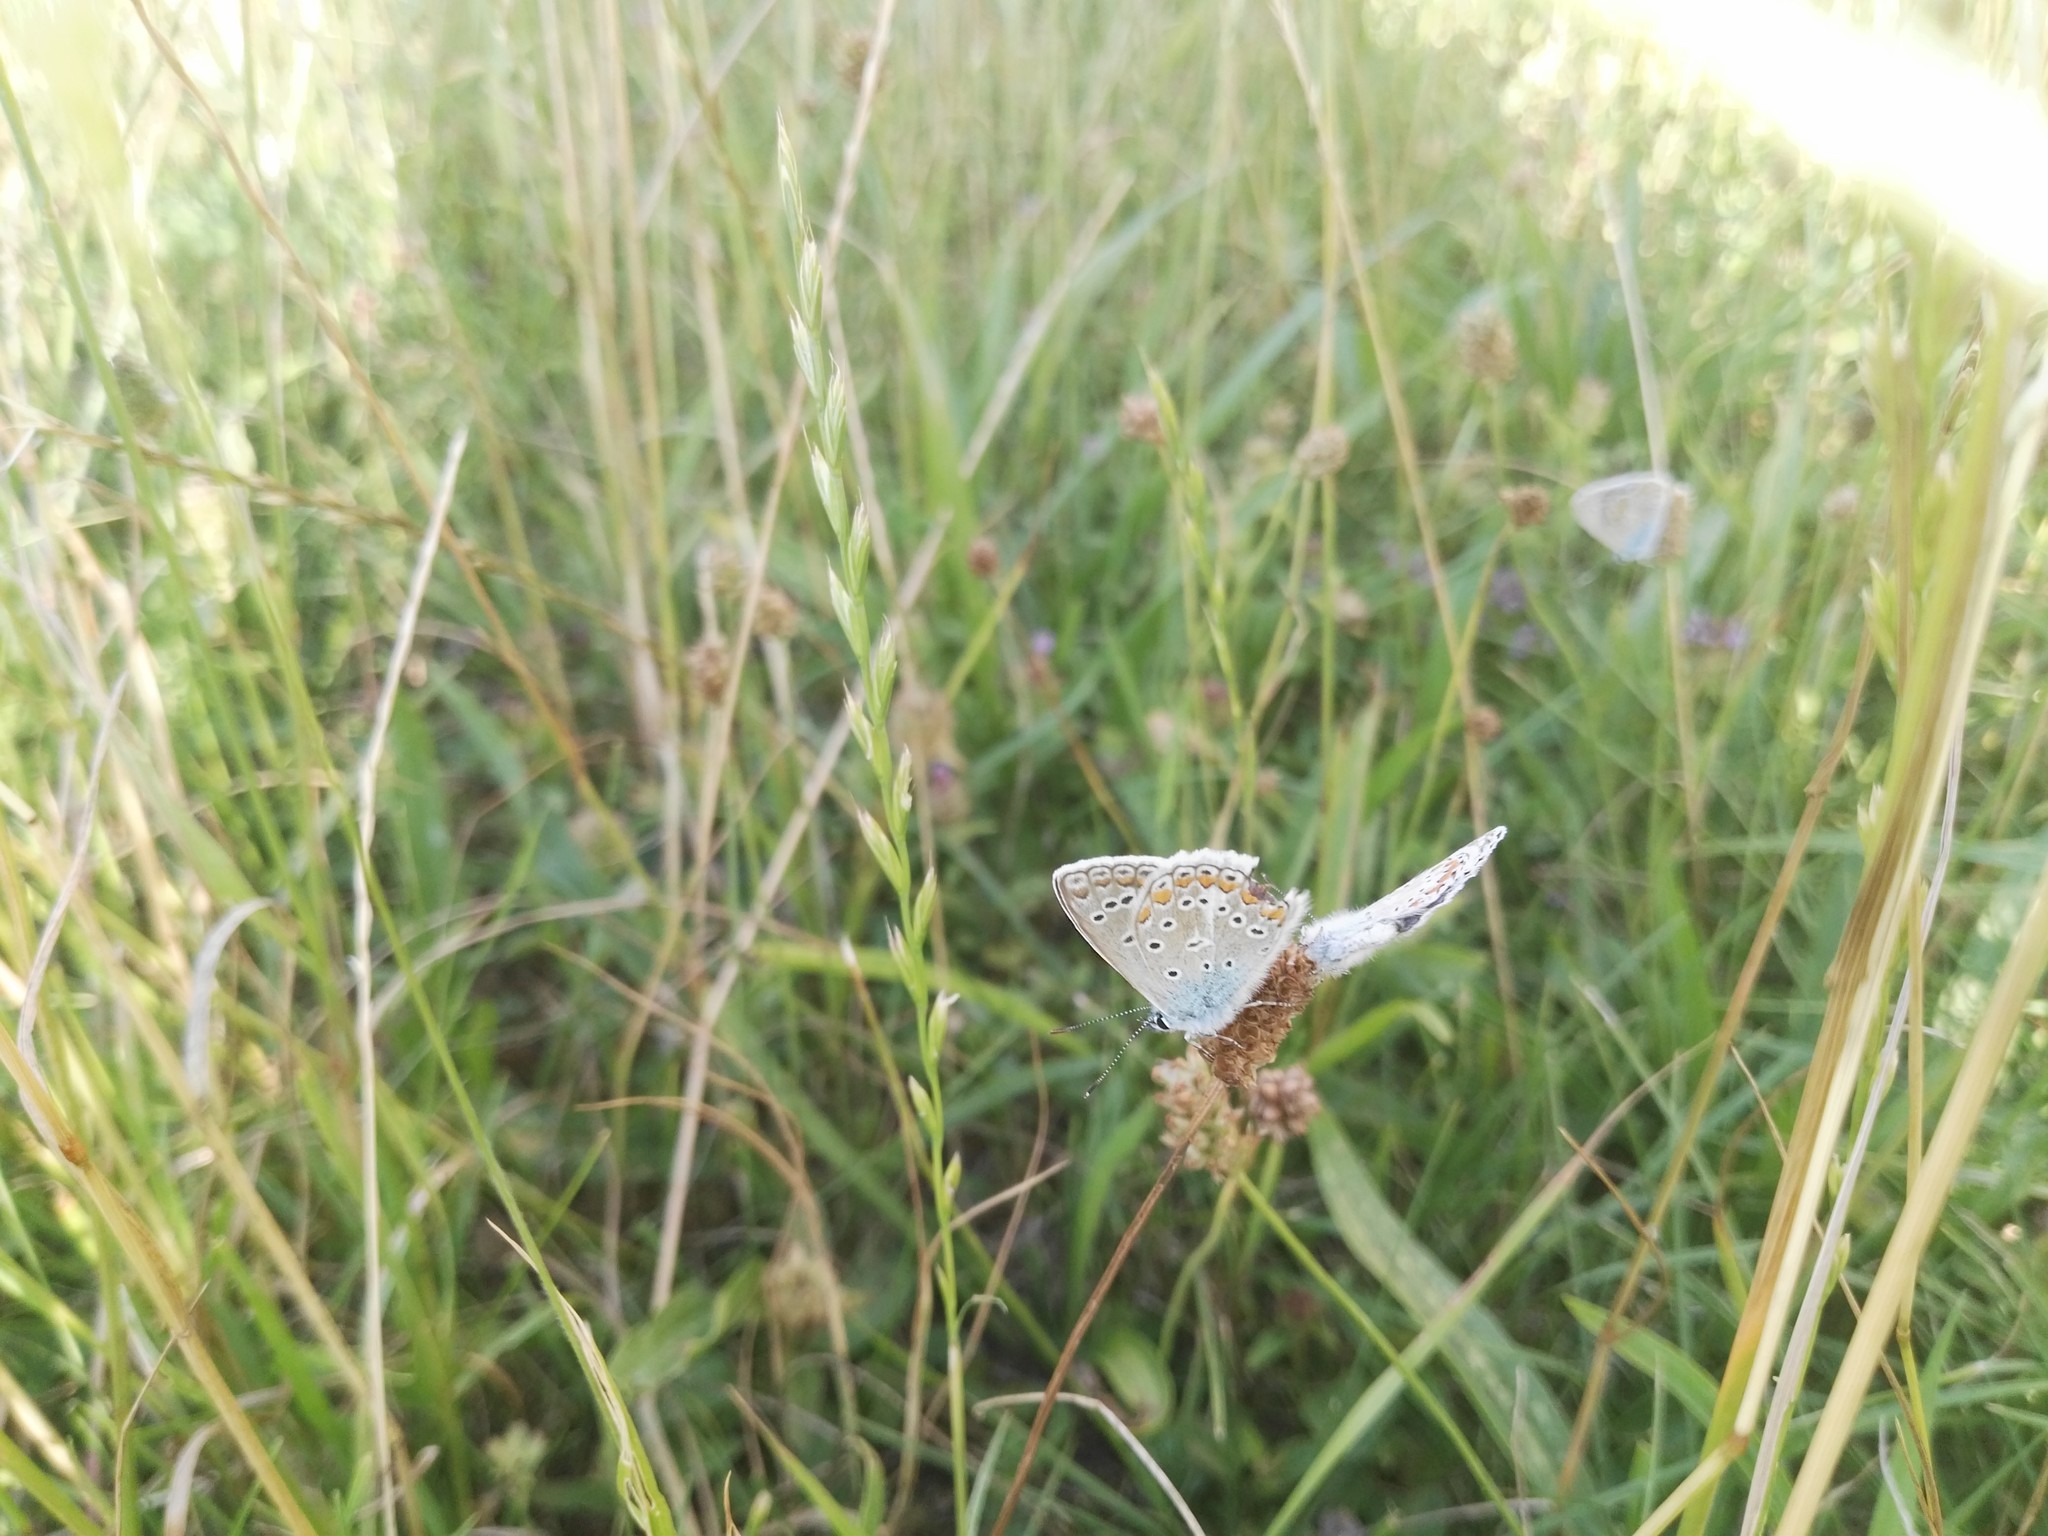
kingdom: Animalia
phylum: Arthropoda
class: Insecta
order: Lepidoptera
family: Lycaenidae
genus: Polyommatus
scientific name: Polyommatus icarus
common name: Common blue
